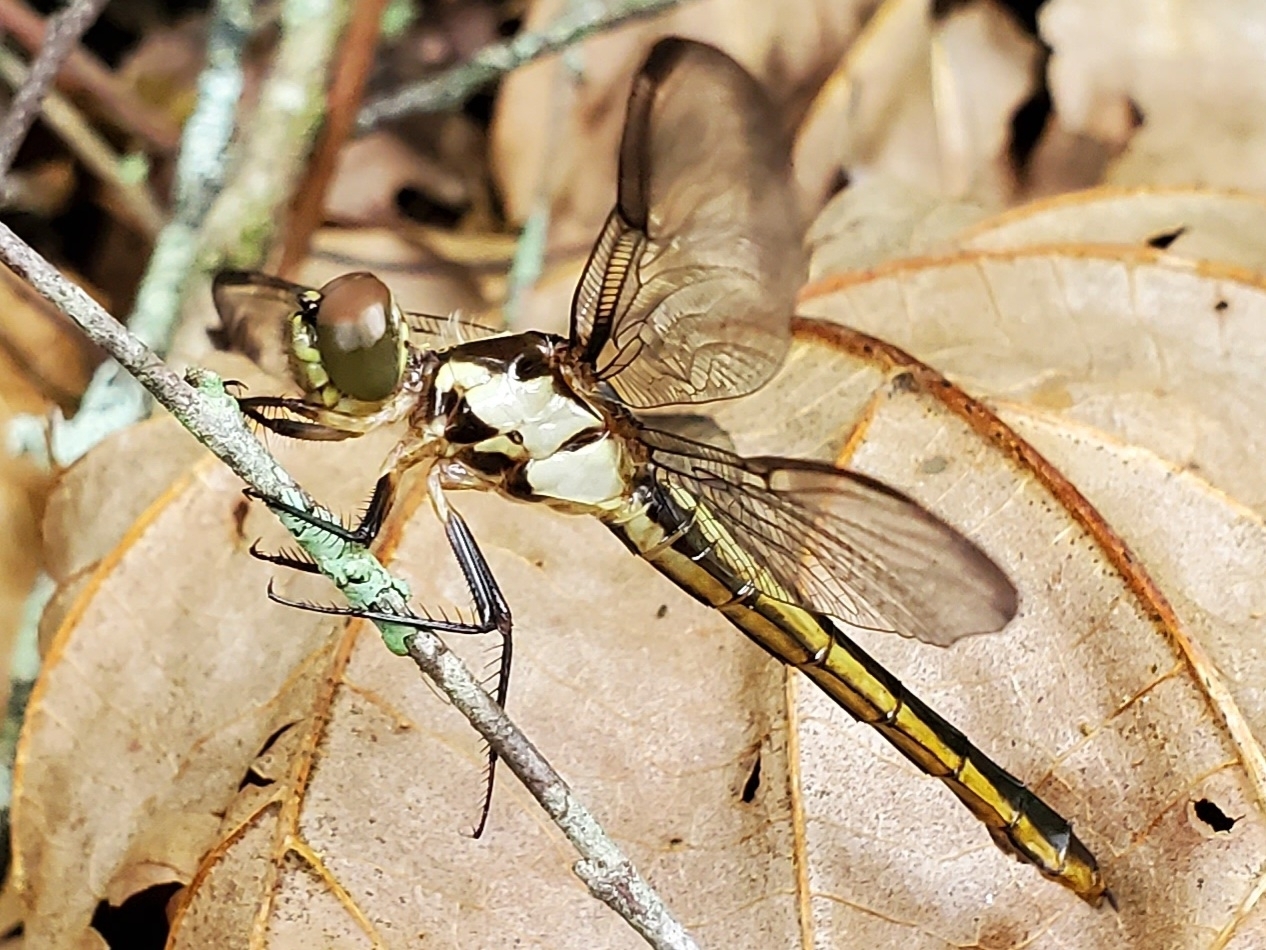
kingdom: Animalia
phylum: Arthropoda
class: Insecta
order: Odonata
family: Libellulidae
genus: Libellula
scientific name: Libellula incesta
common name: Slaty skimmer
